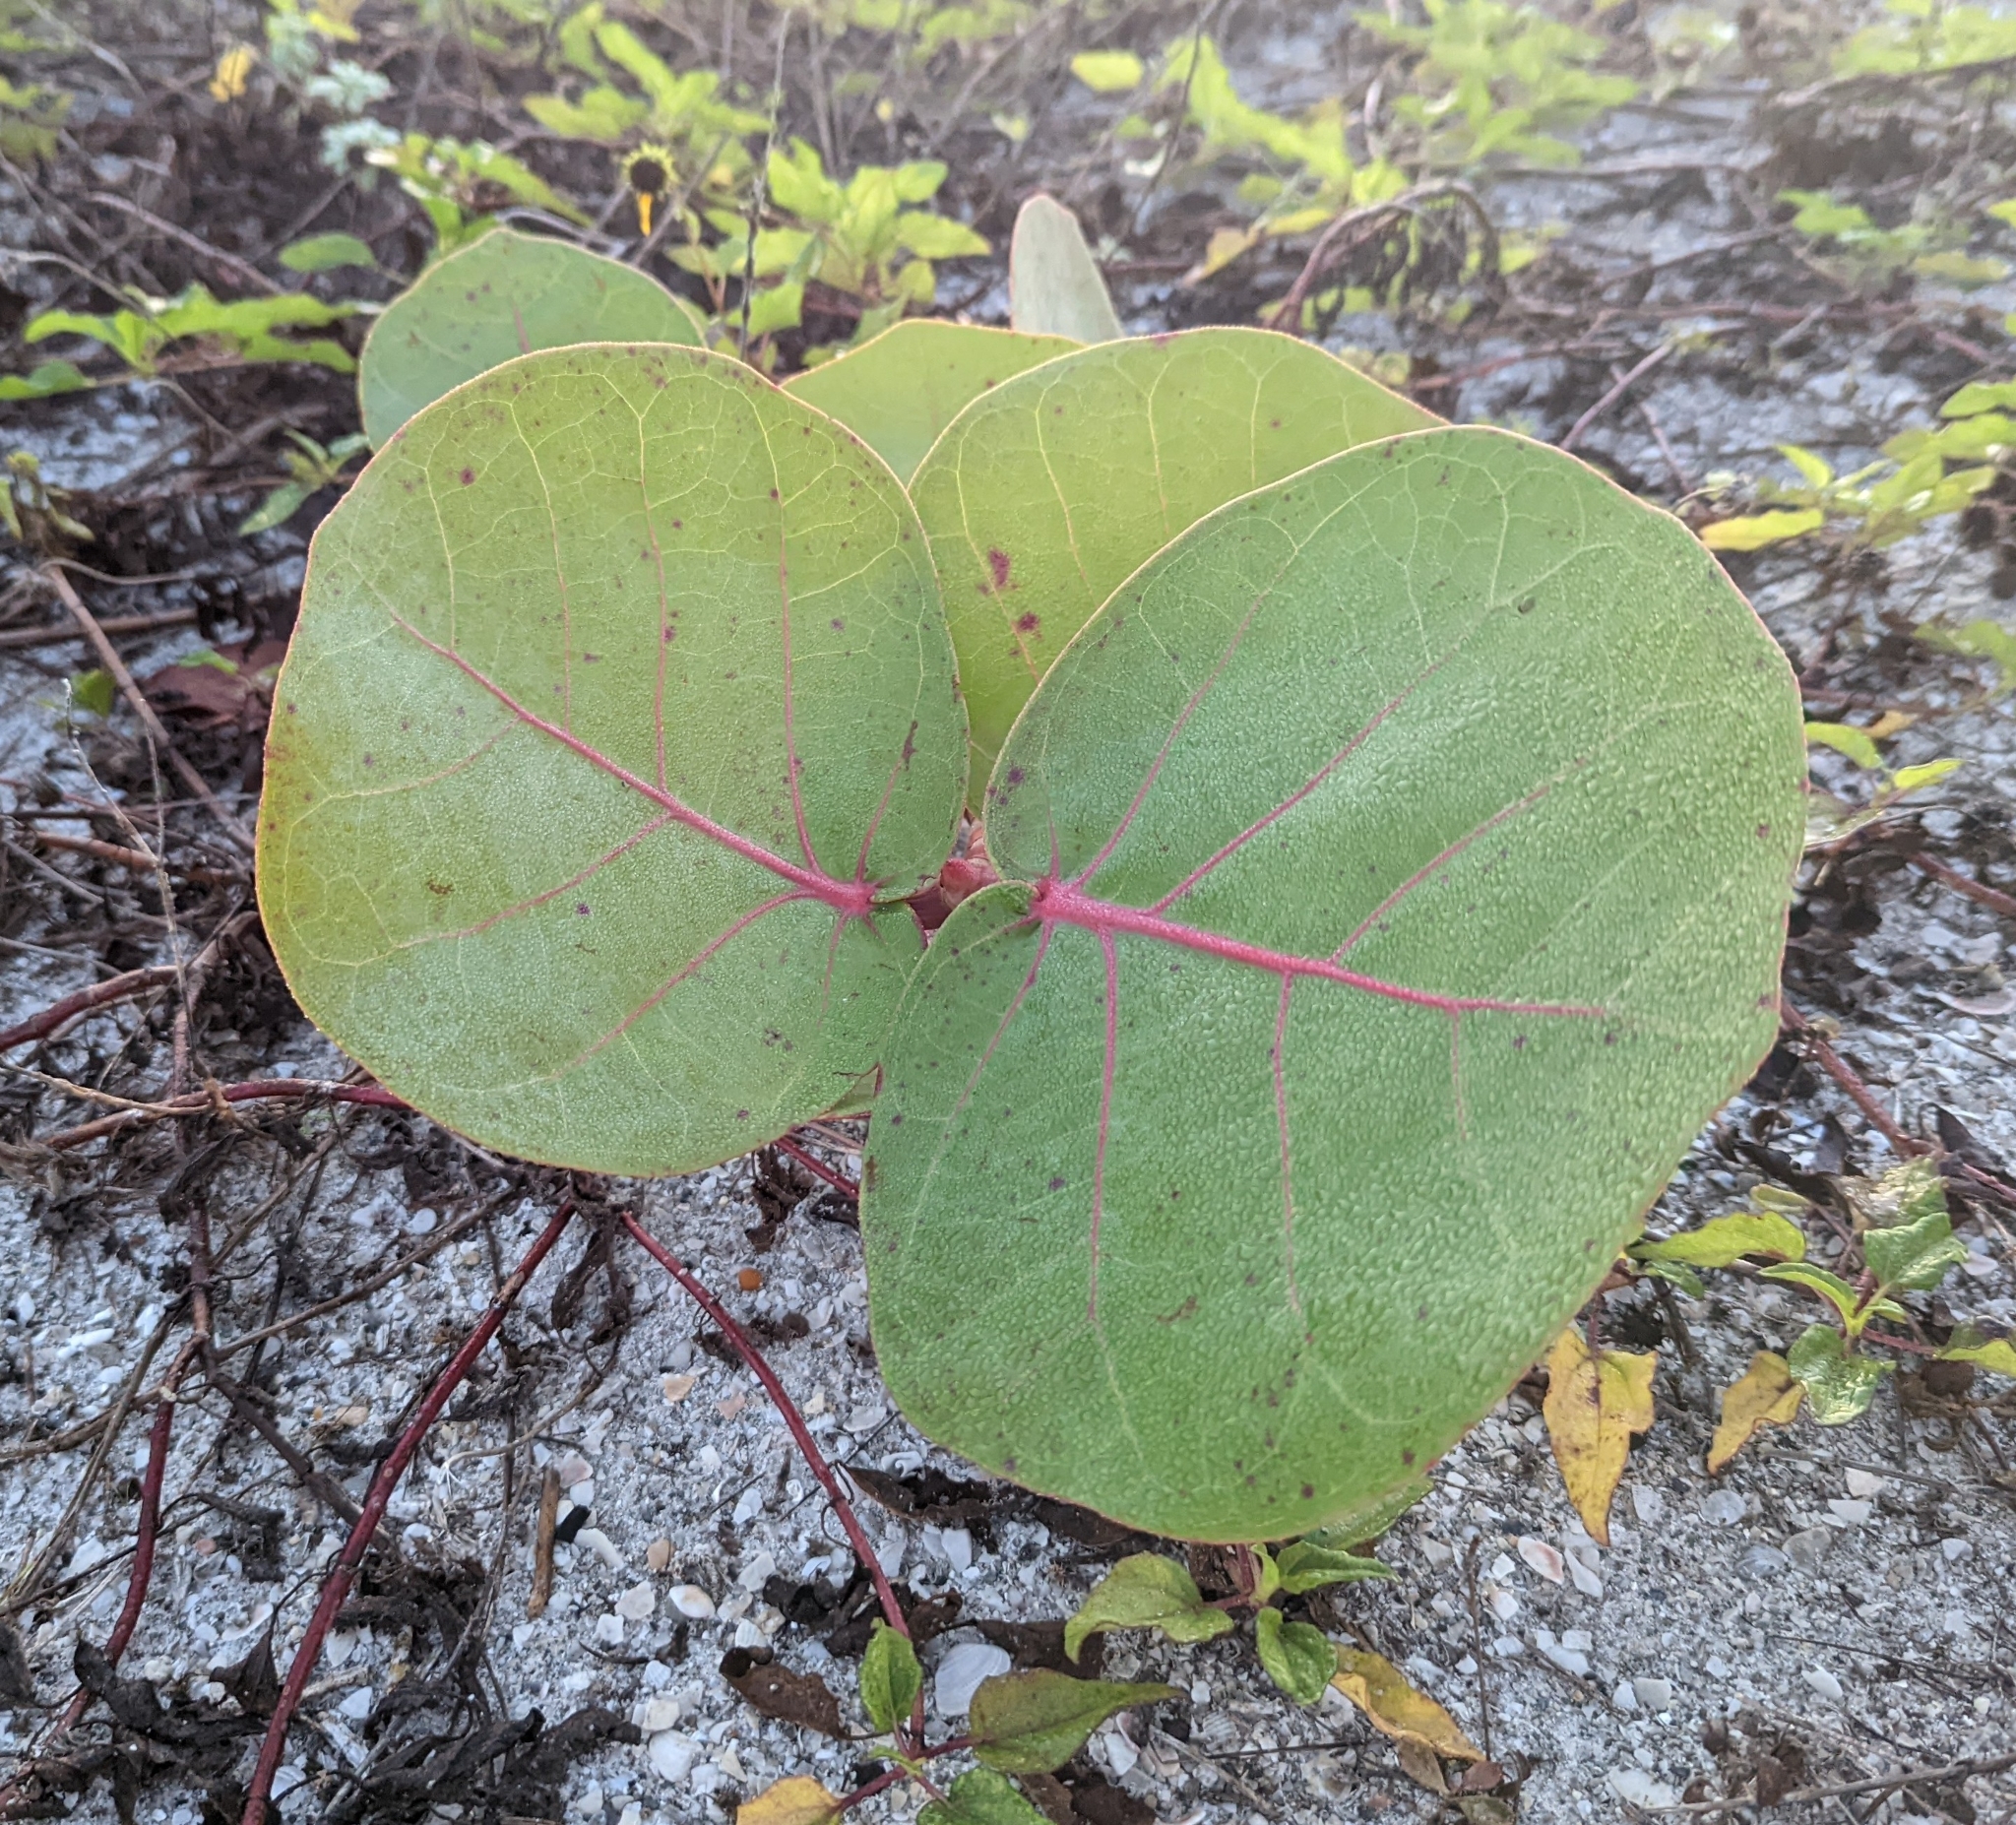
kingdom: Plantae
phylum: Tracheophyta
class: Magnoliopsida
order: Caryophyllales
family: Polygonaceae
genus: Coccoloba
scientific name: Coccoloba uvifera
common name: Seagrape
